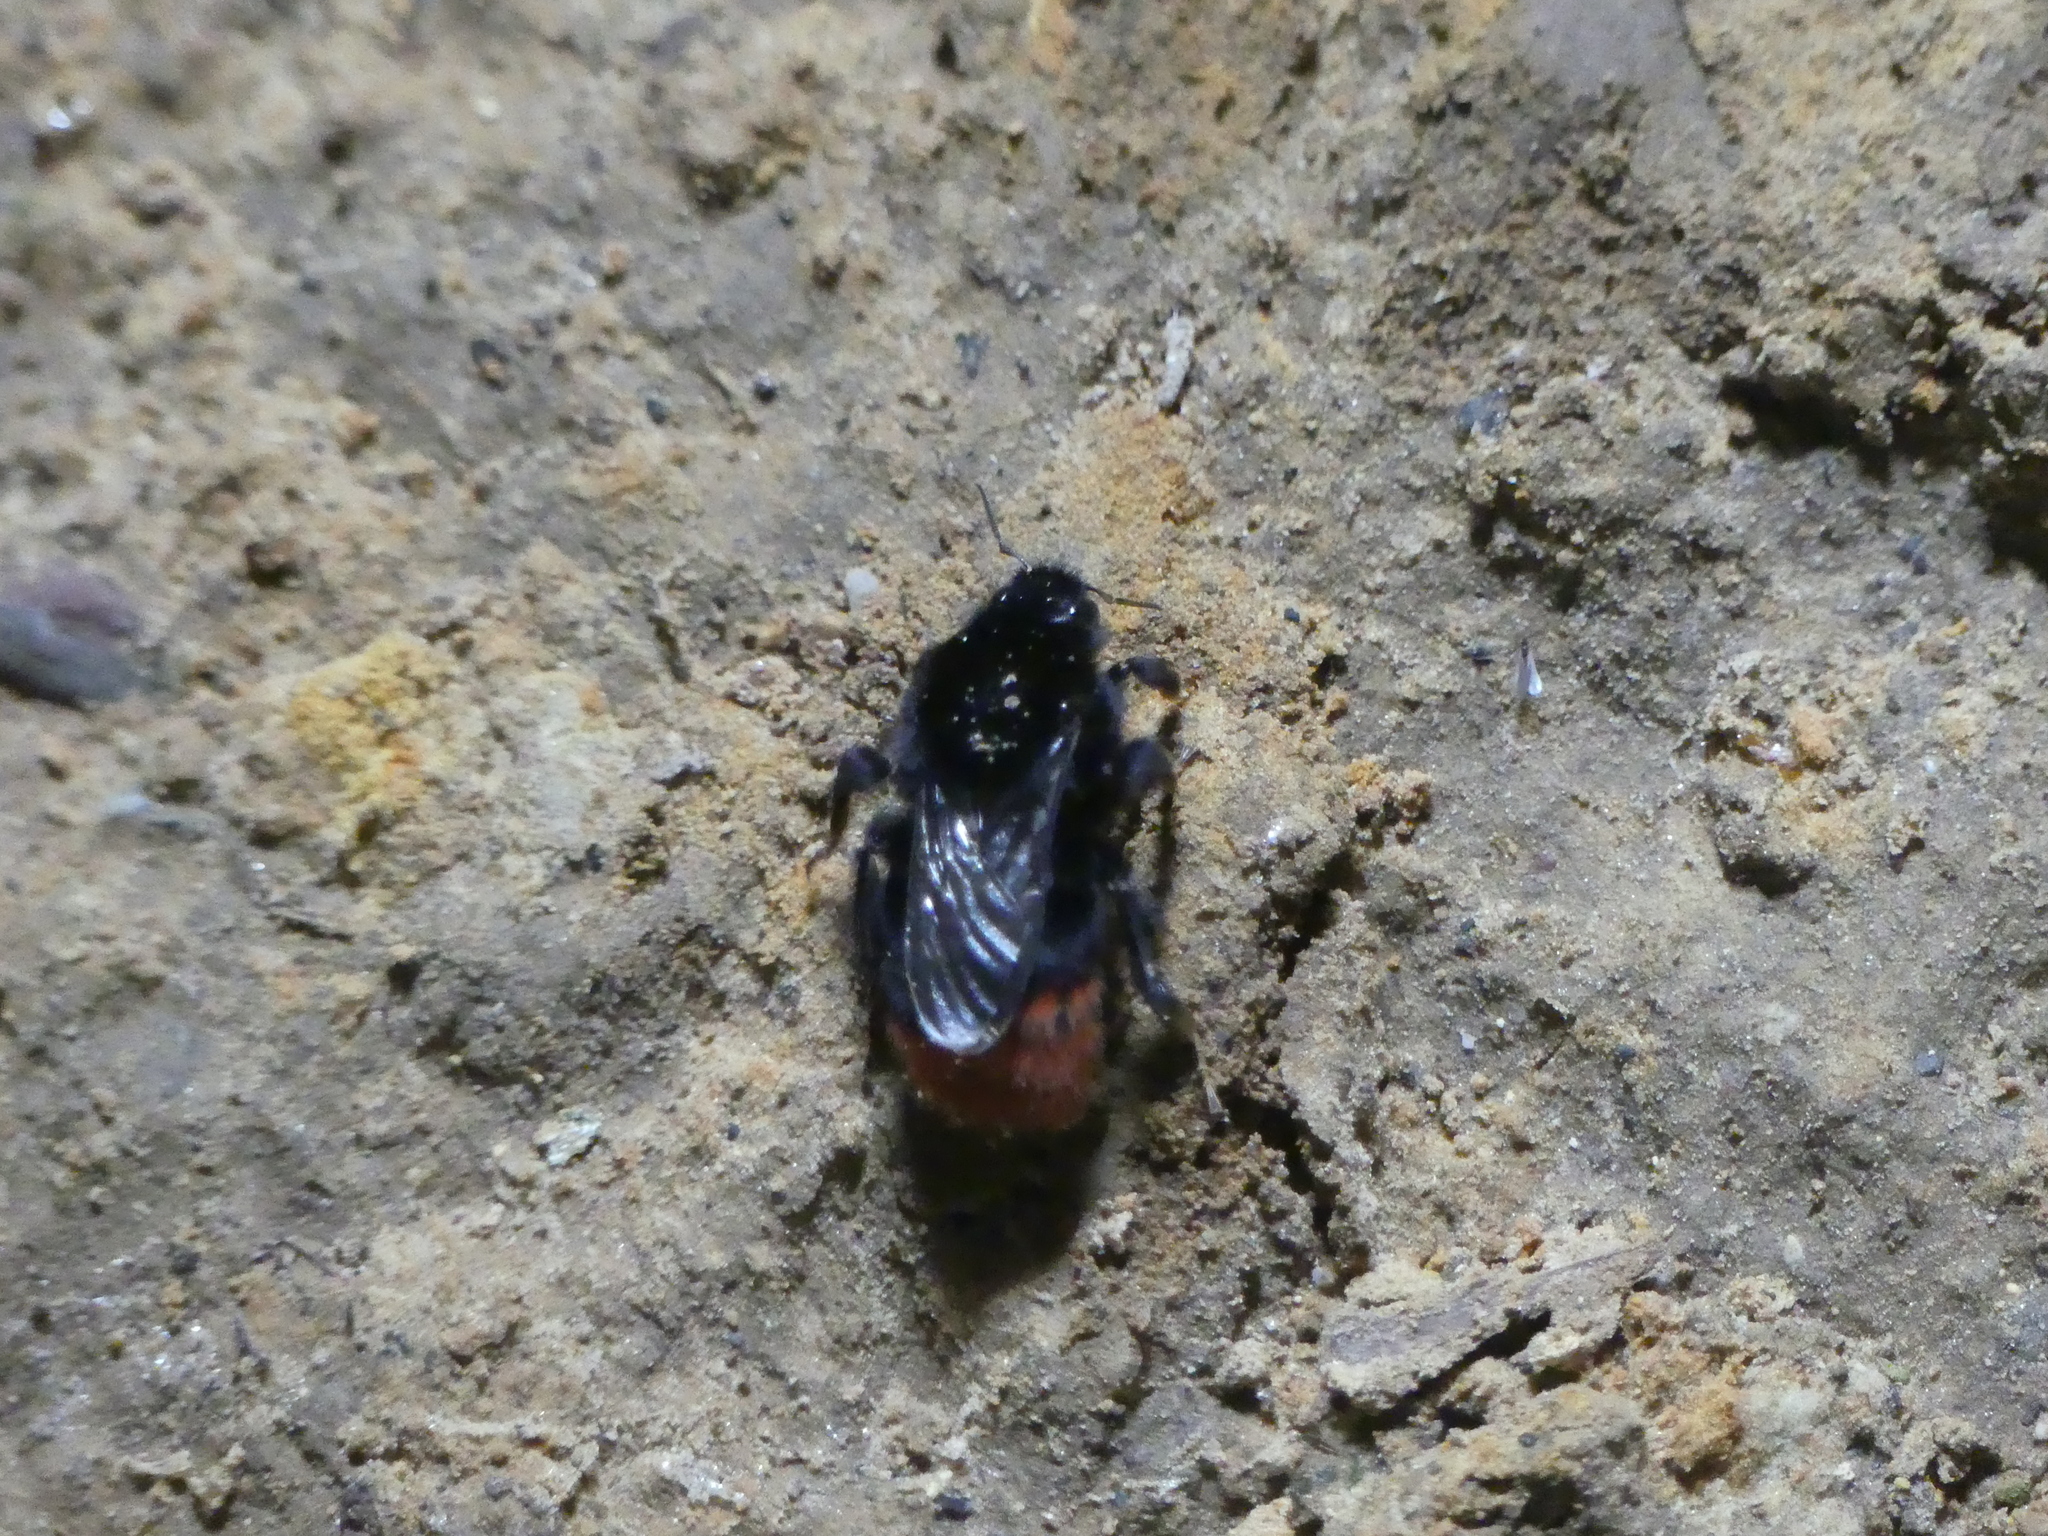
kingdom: Animalia
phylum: Arthropoda
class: Insecta
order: Hymenoptera
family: Apidae
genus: Bombus
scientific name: Bombus lapidarius
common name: Large red-tailed humble-bee
